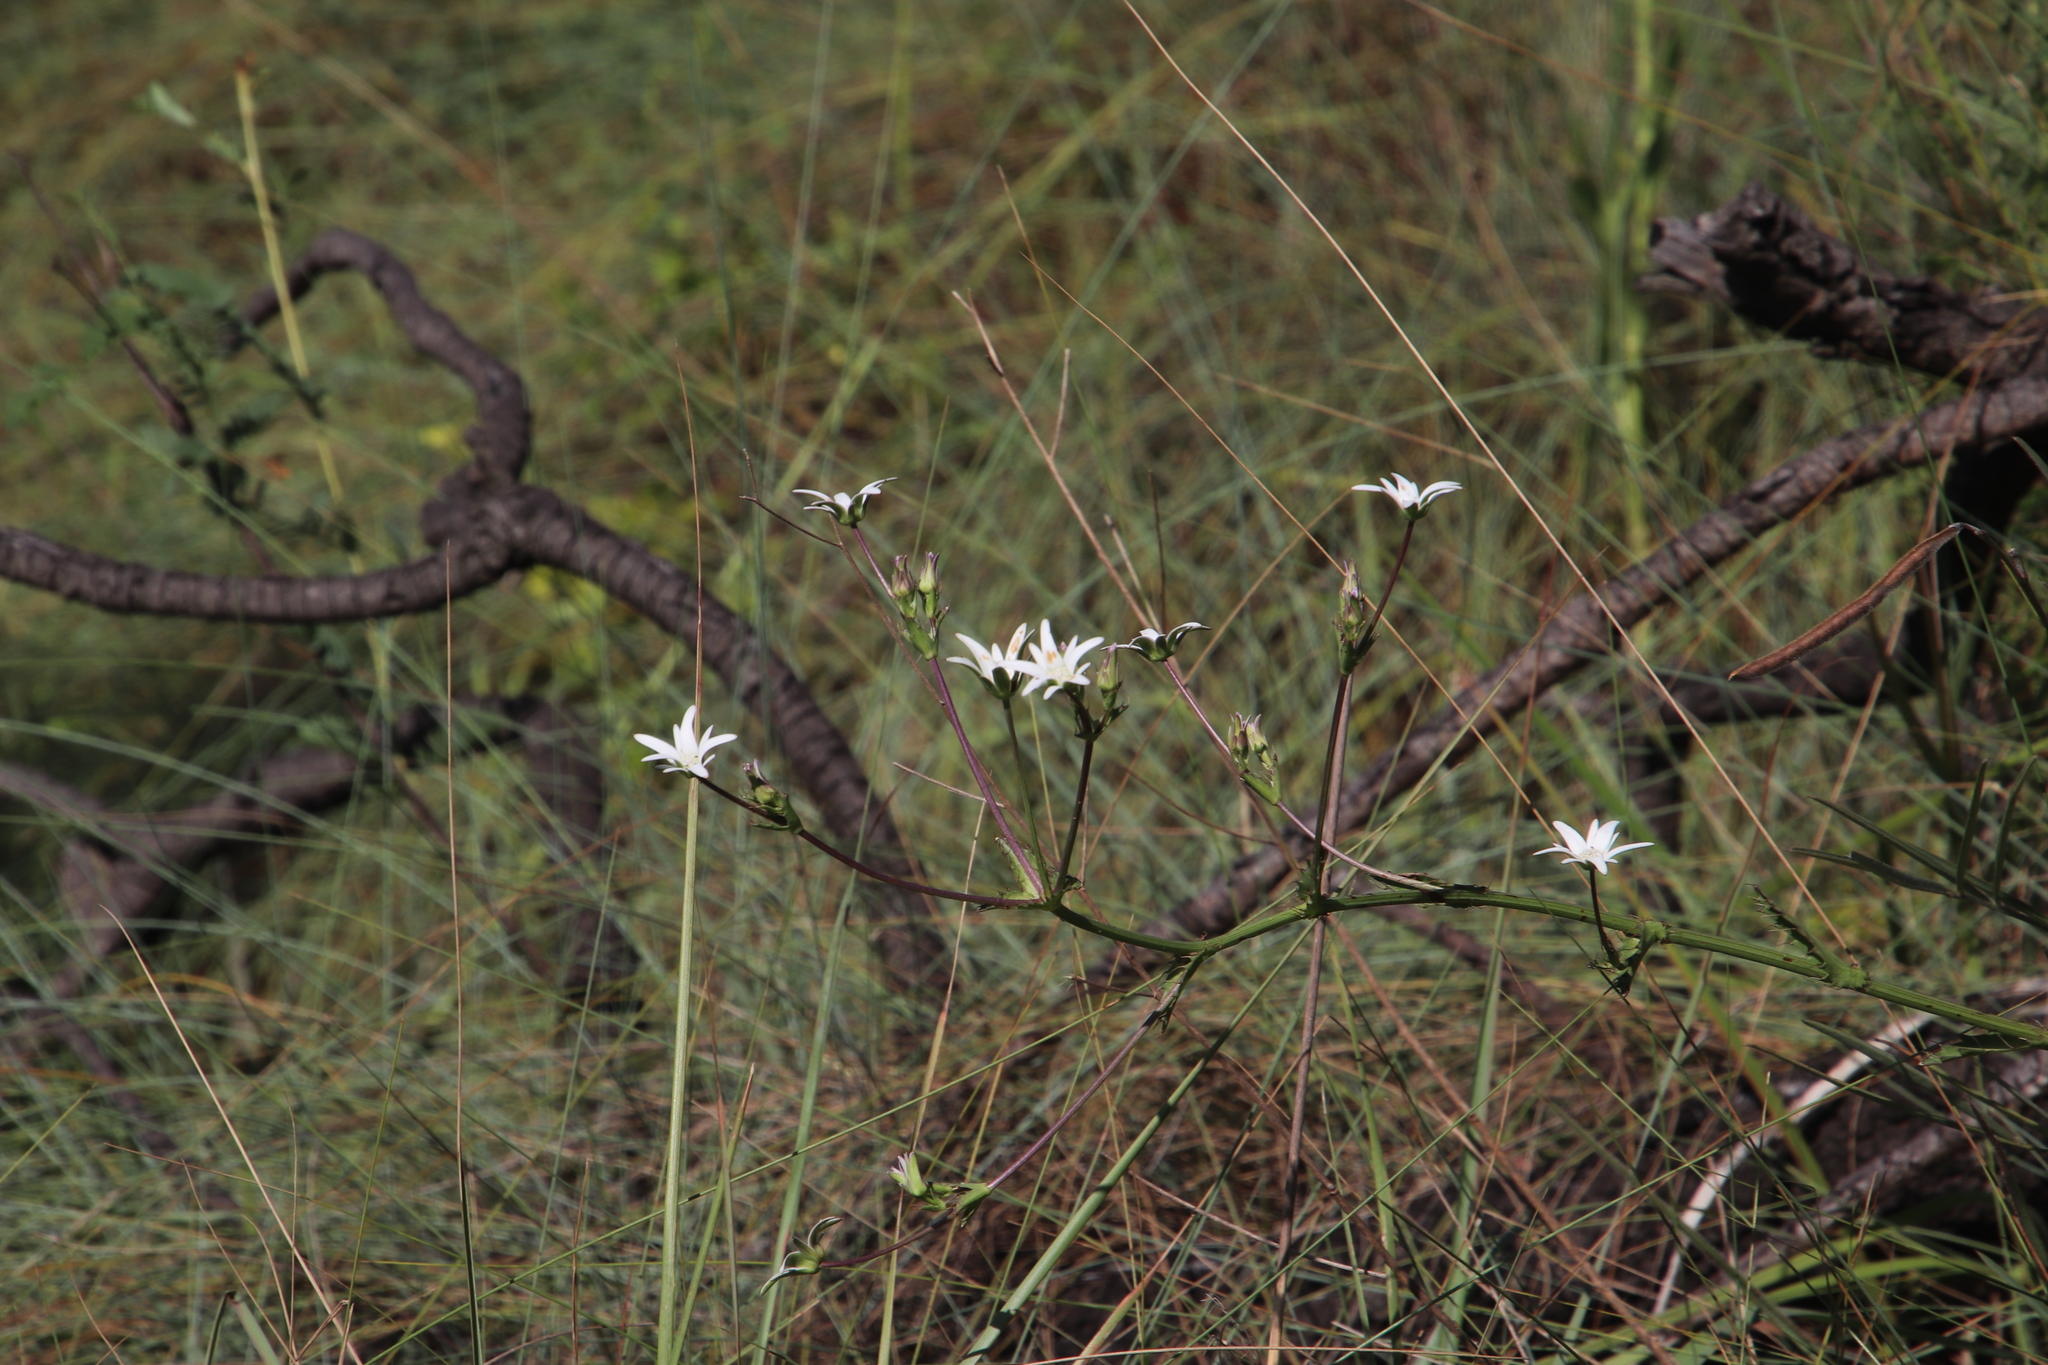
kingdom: Plantae
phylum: Tracheophyta
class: Magnoliopsida
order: Apiales
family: Apiaceae
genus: Alepidea
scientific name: Alepidea peduncularis
